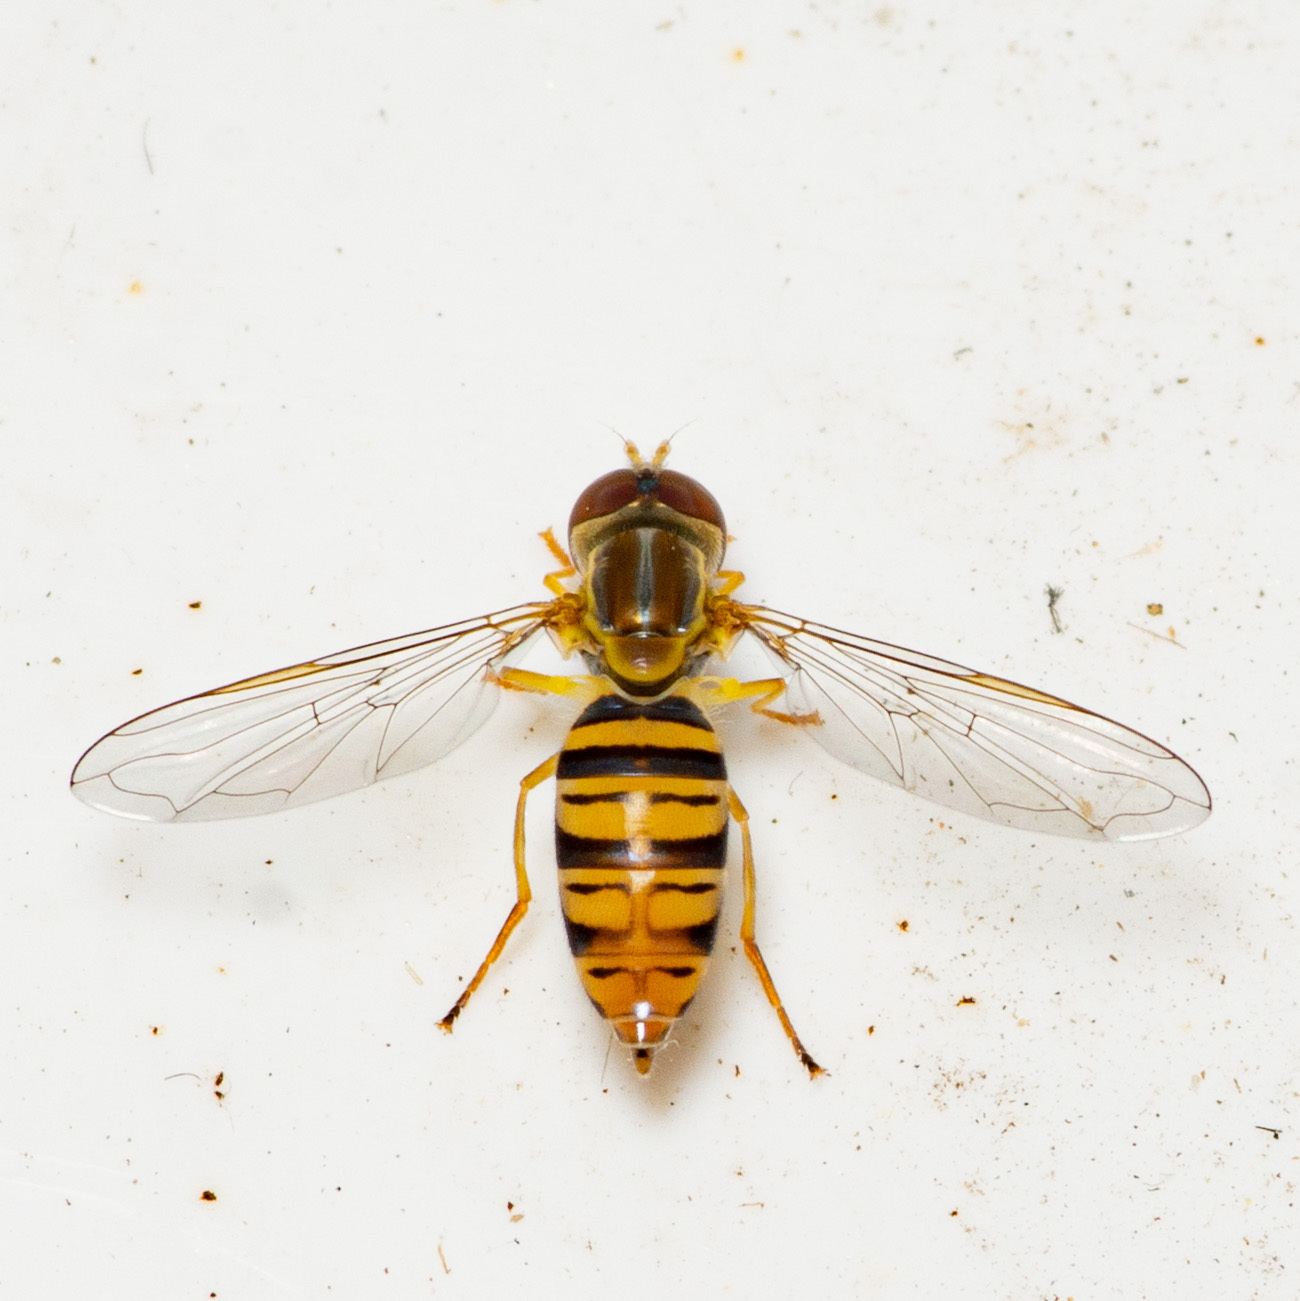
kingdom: Animalia
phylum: Arthropoda
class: Insecta
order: Diptera
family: Syrphidae
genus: Toxomerus
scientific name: Toxomerus politus
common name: Maize calligrapher
